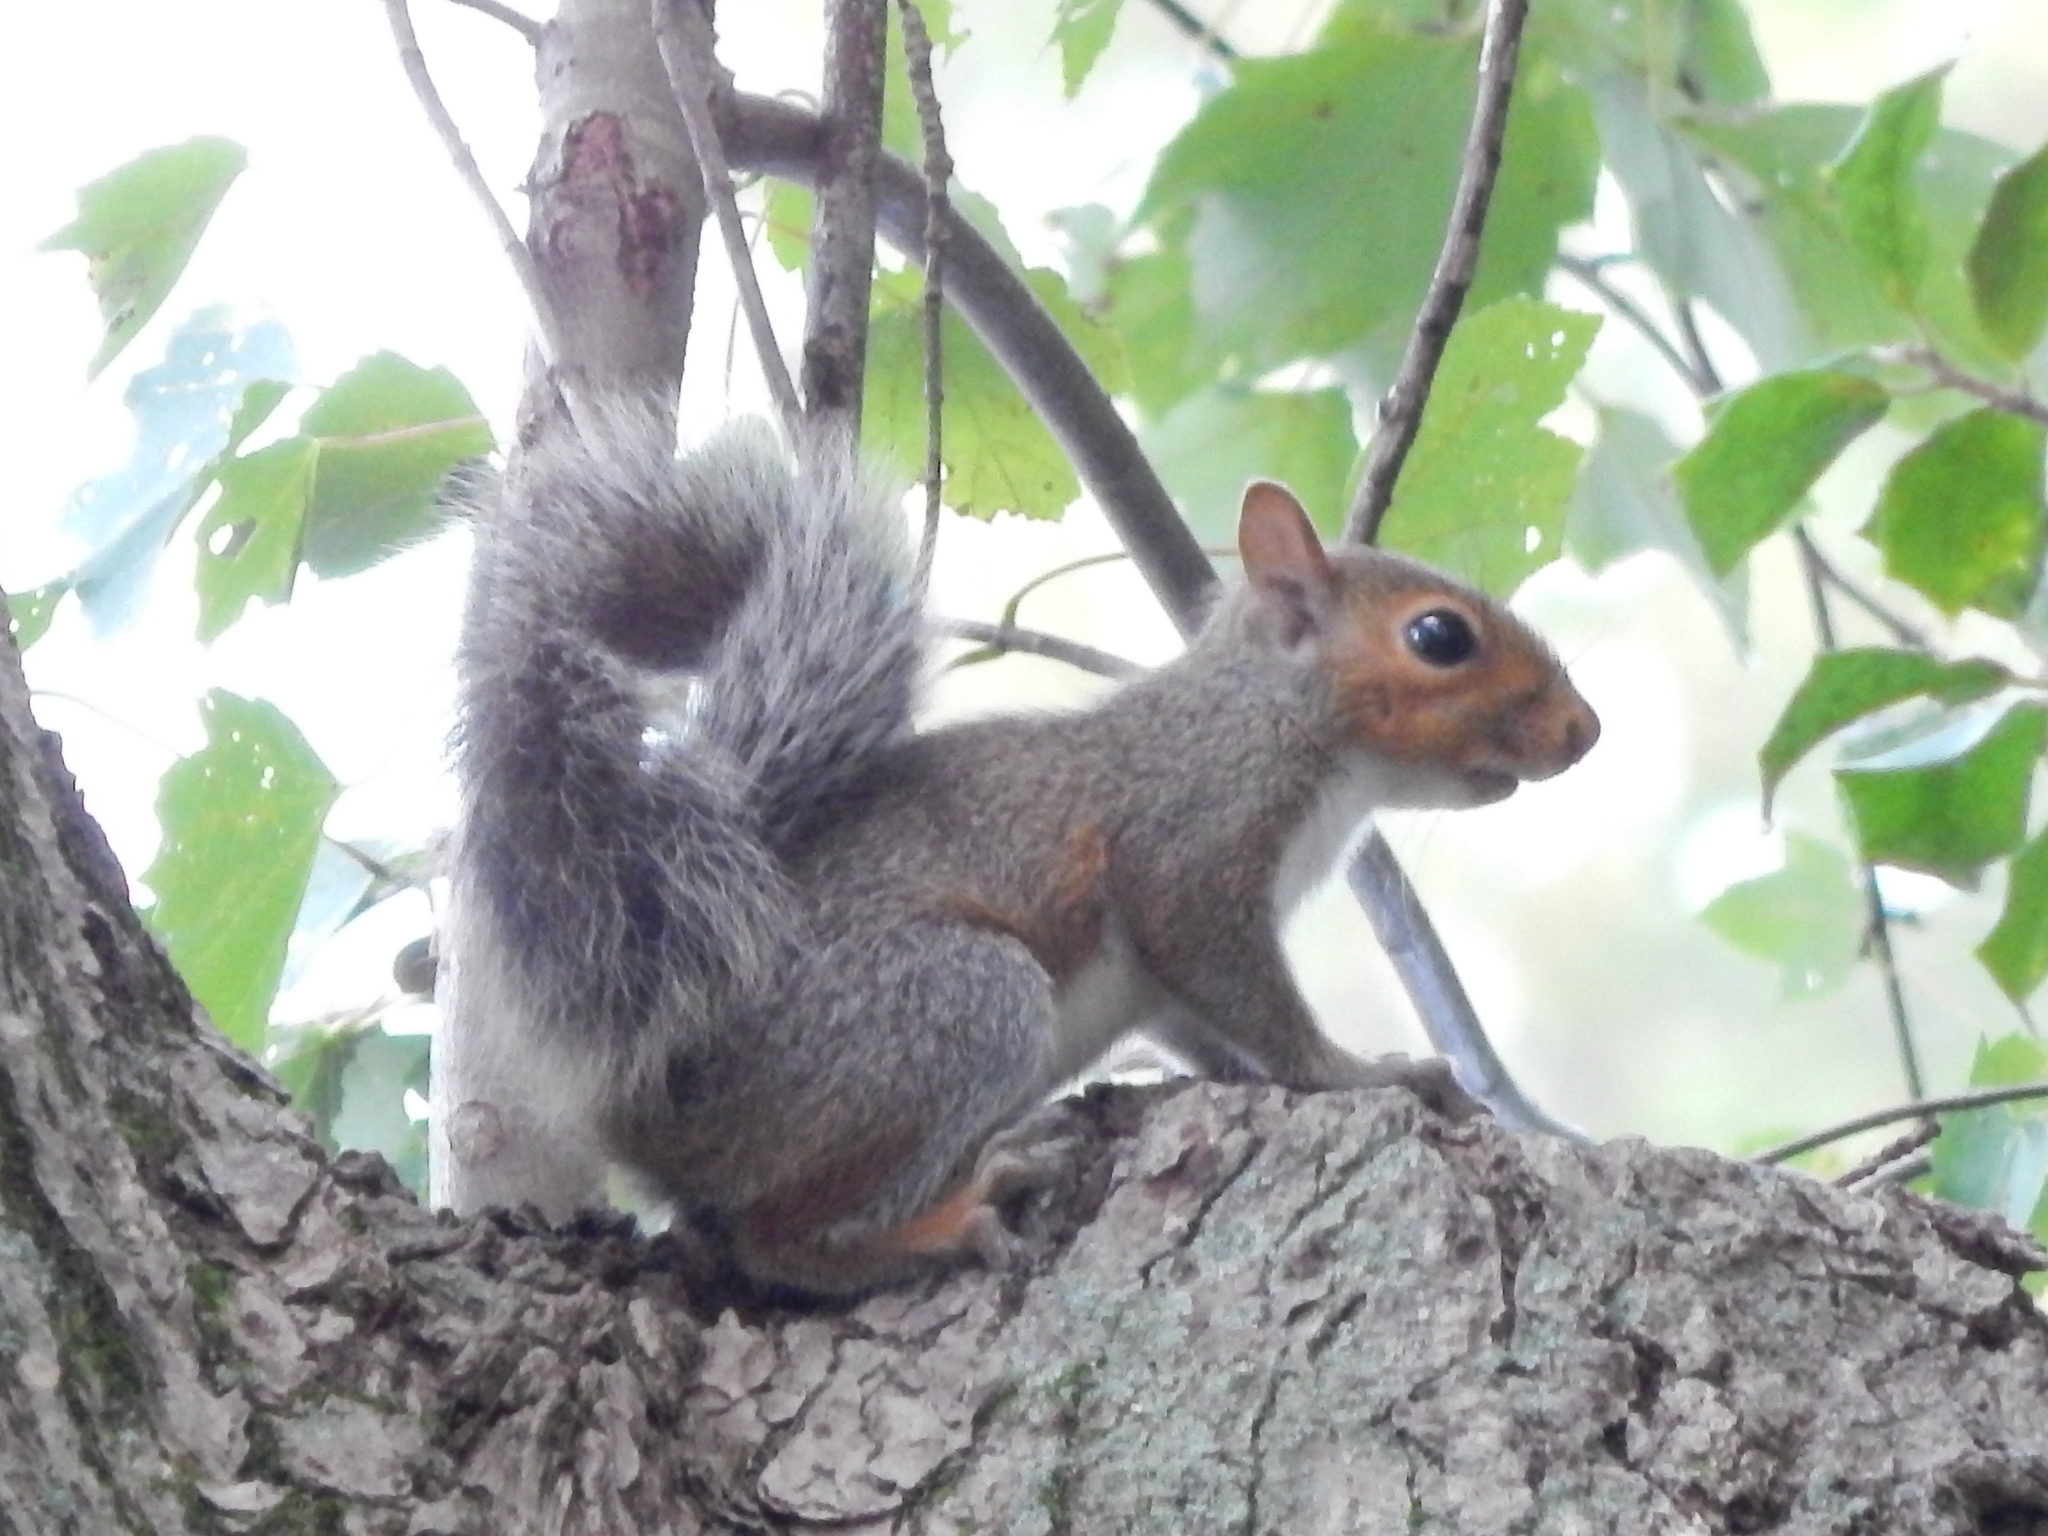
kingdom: Animalia
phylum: Chordata
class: Mammalia
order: Rodentia
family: Sciuridae
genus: Sciurus
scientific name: Sciurus carolinensis
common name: Eastern gray squirrel
